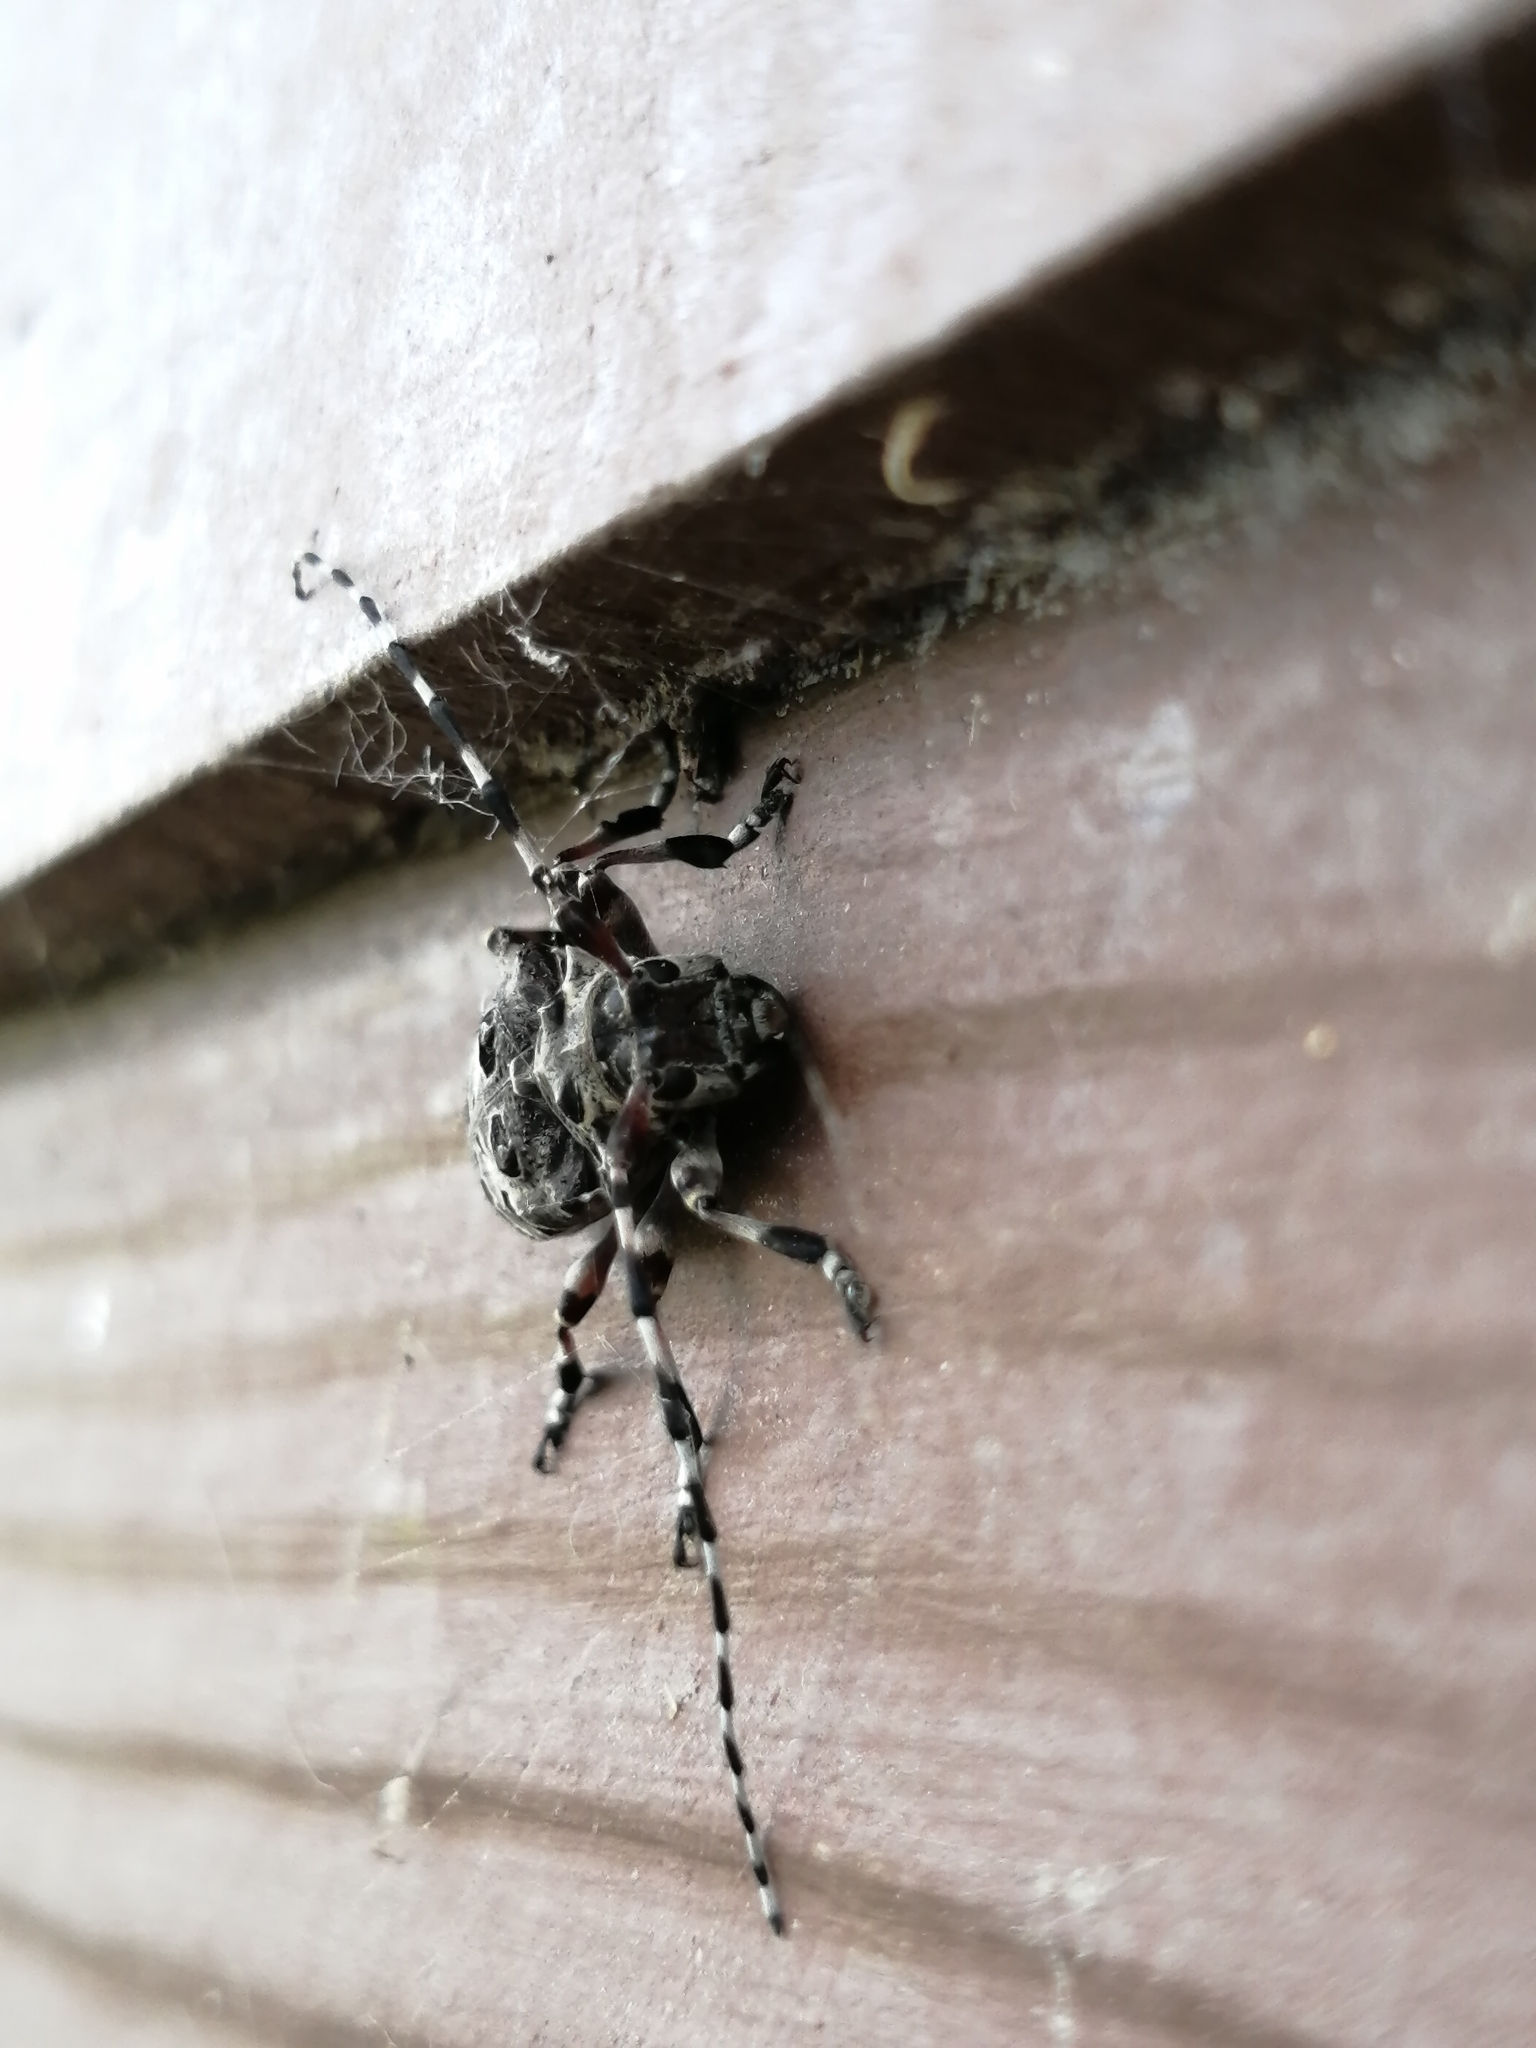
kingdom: Animalia
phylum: Arthropoda
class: Insecta
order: Coleoptera
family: Cerambycidae
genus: Azygocera
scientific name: Azygocera picturata
